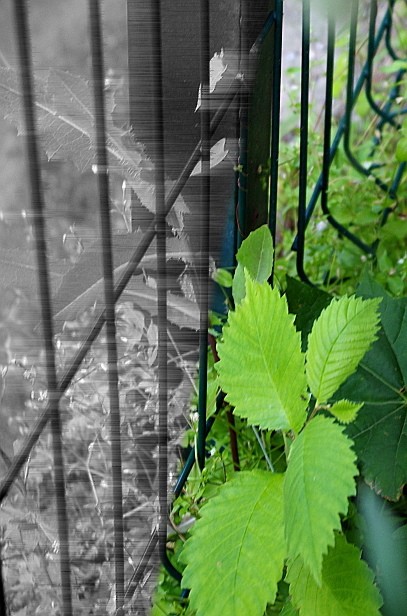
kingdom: Plantae
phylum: Tracheophyta
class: Magnoliopsida
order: Rosales
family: Ulmaceae
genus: Ulmus
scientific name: Ulmus laevis
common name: European white-elm
